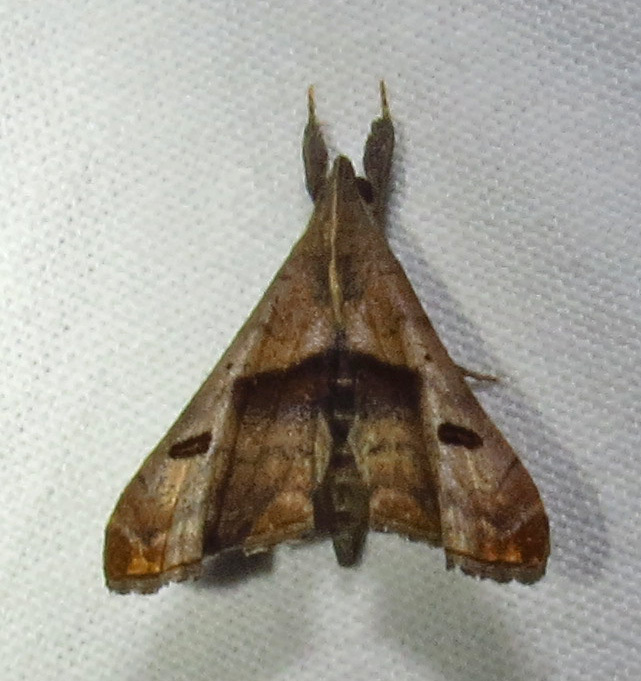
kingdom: Animalia
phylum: Arthropoda
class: Insecta
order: Lepidoptera
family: Erebidae
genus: Palthis
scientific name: Palthis angulalis
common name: Dark-spotted palthis moth
